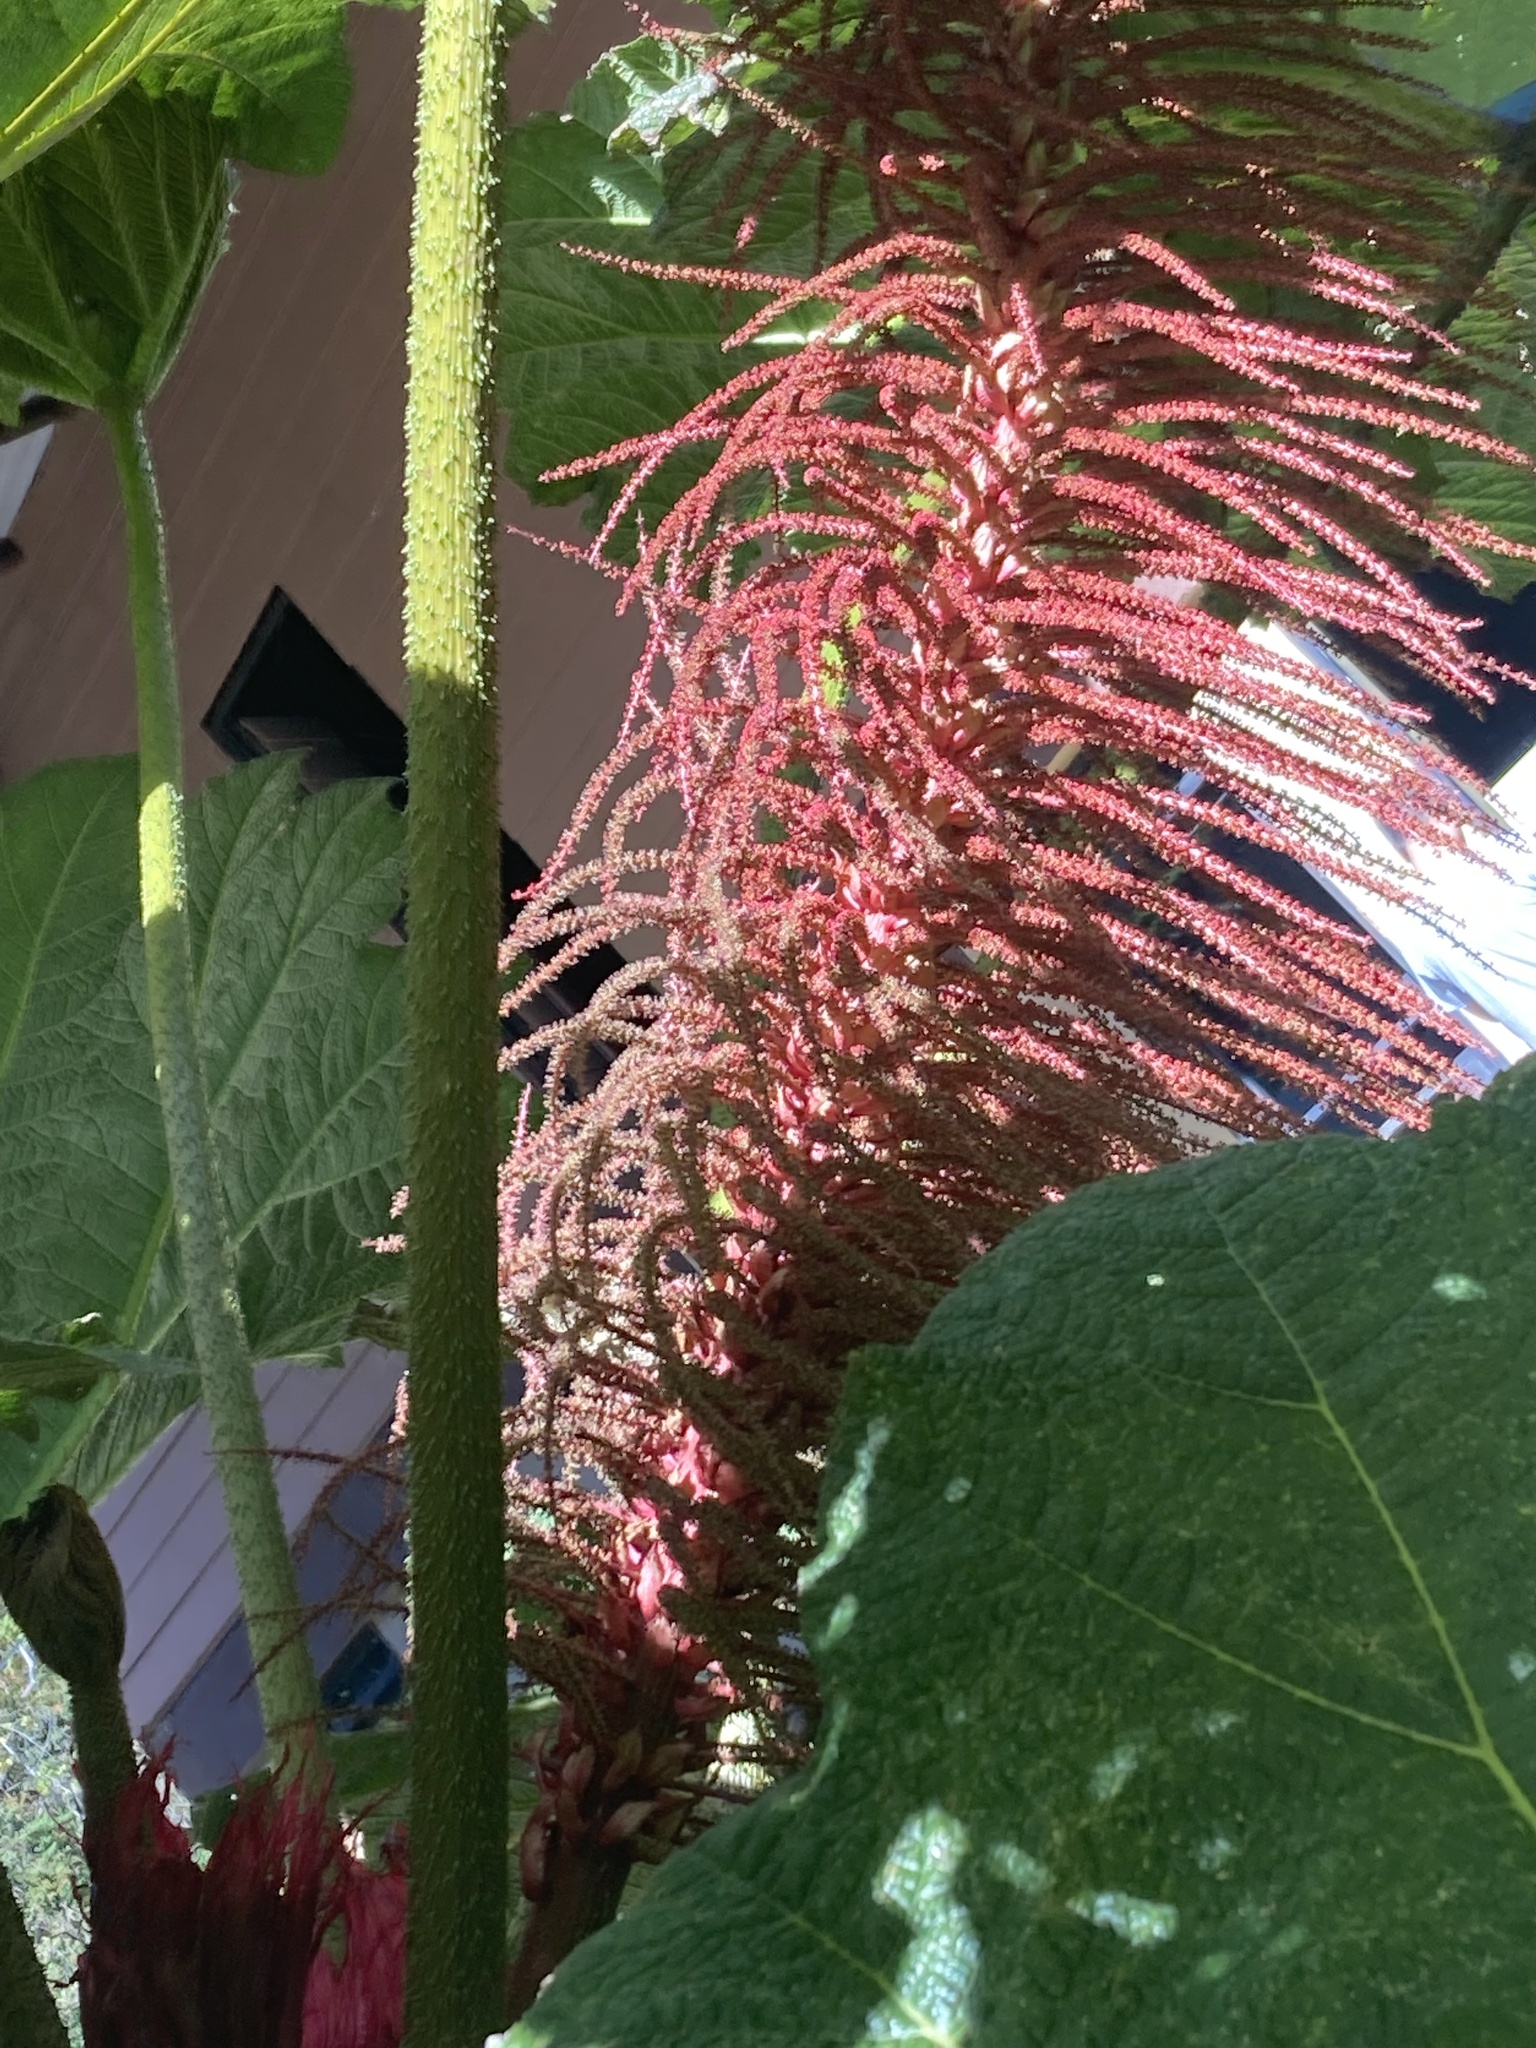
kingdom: Plantae
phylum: Tracheophyta
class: Magnoliopsida
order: Gunnerales
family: Gunneraceae
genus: Gunnera
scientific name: Gunnera insignis
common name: Poorman's umbrella
